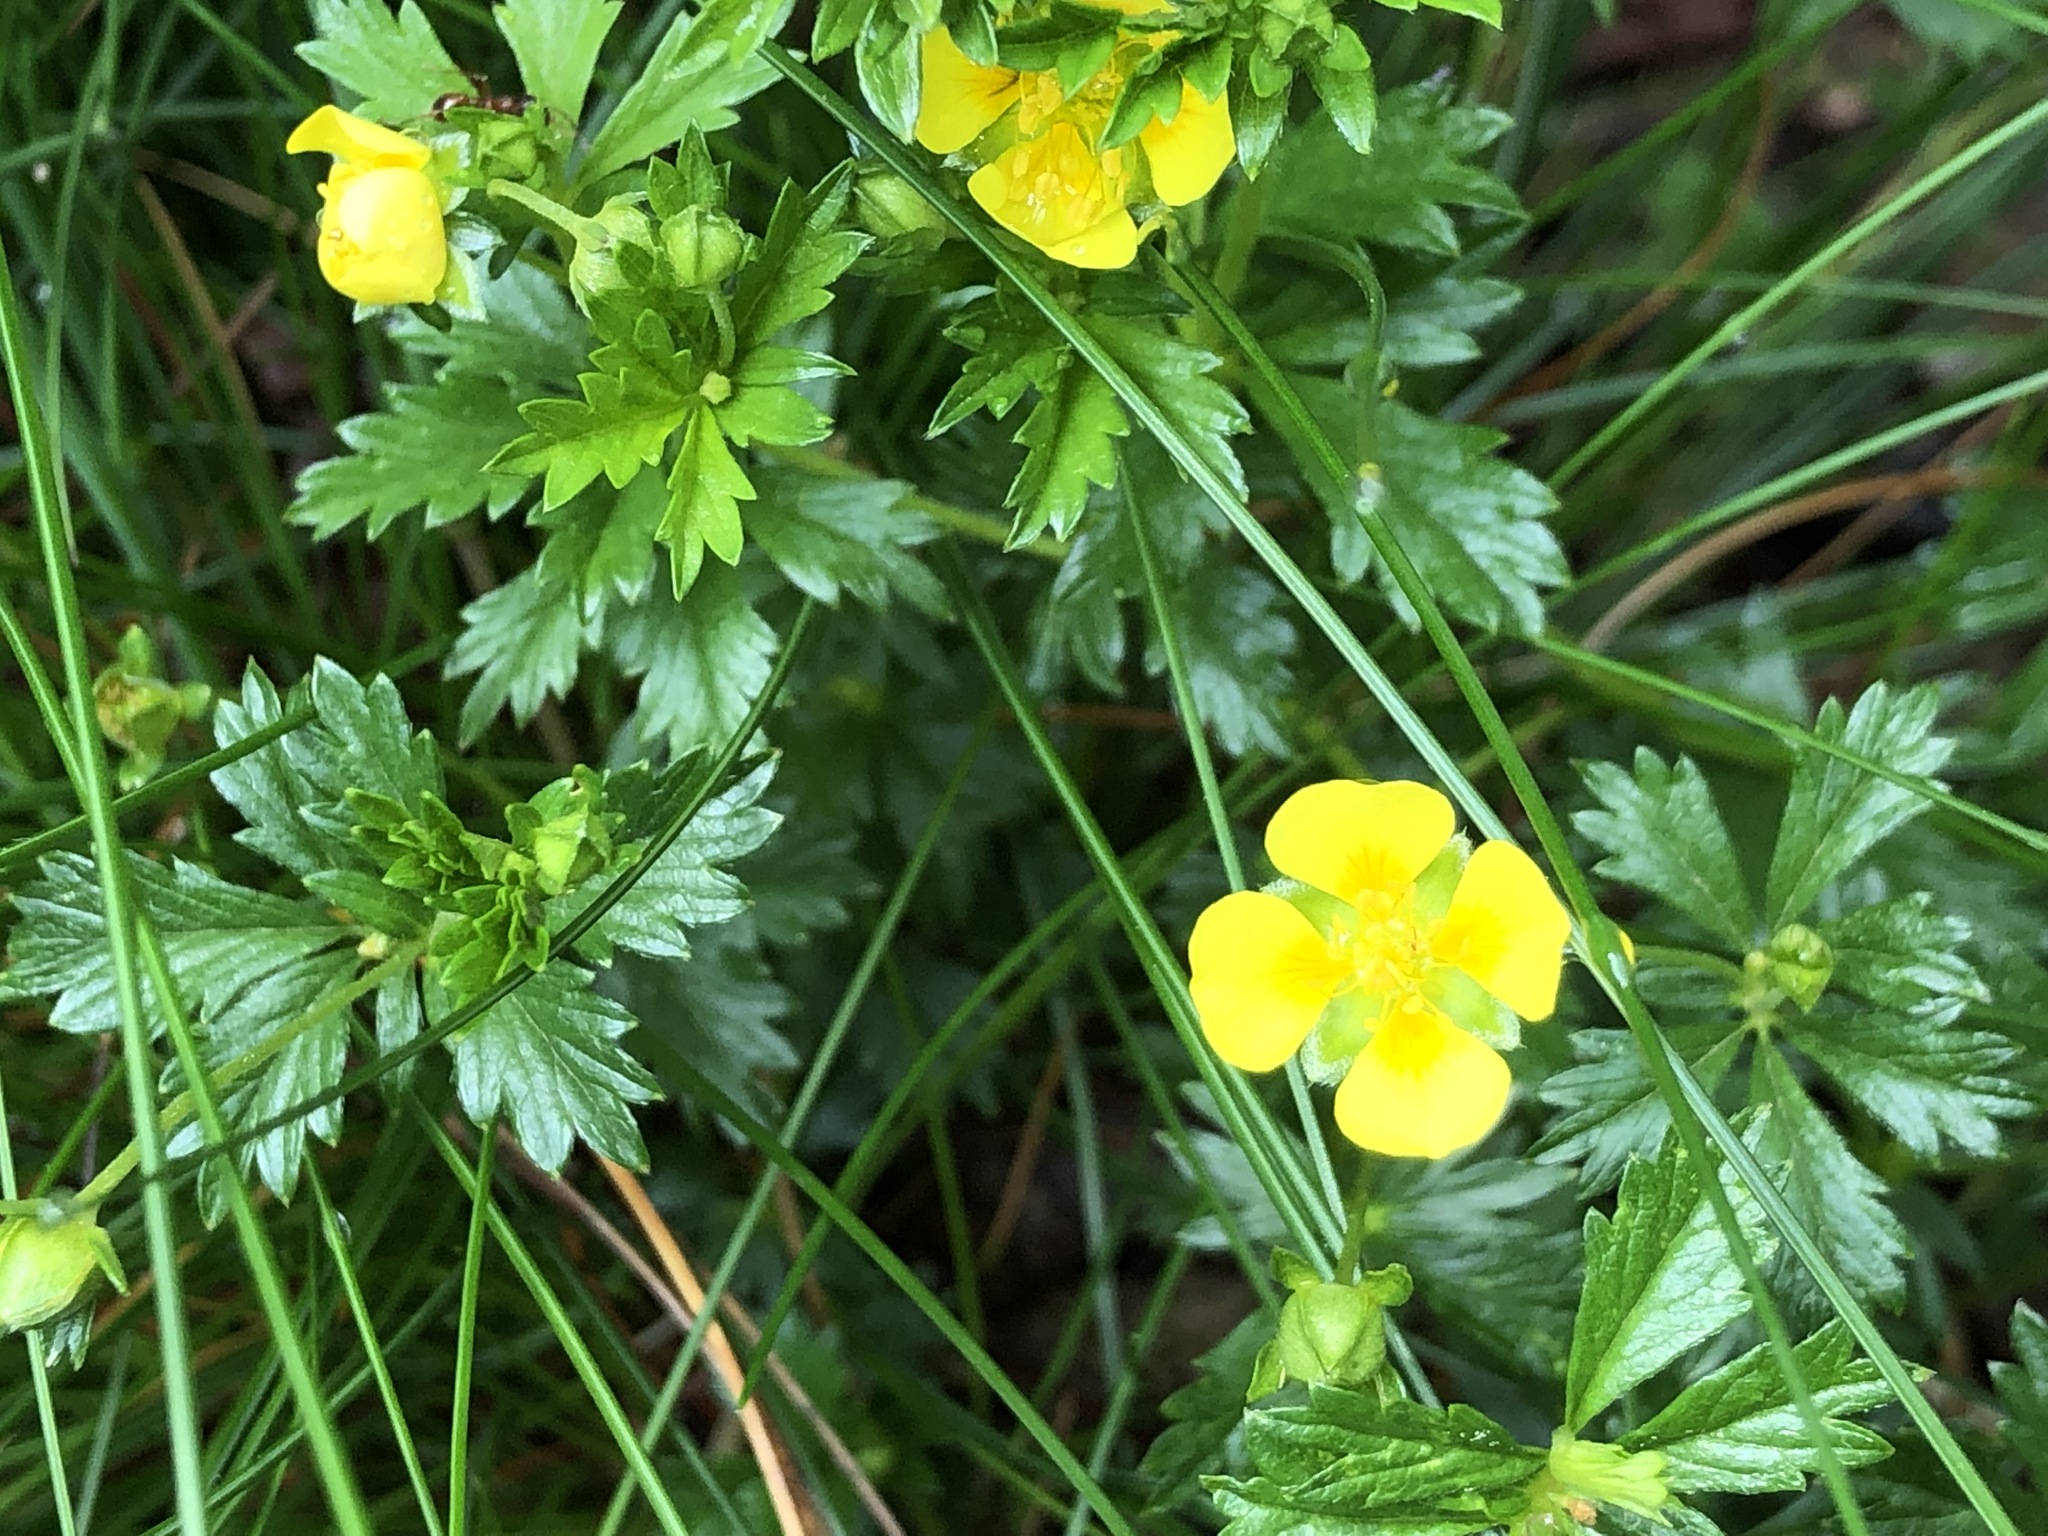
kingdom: Plantae
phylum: Tracheophyta
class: Magnoliopsida
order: Rosales
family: Rosaceae
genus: Potentilla
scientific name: Potentilla erecta
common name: Tormentil
